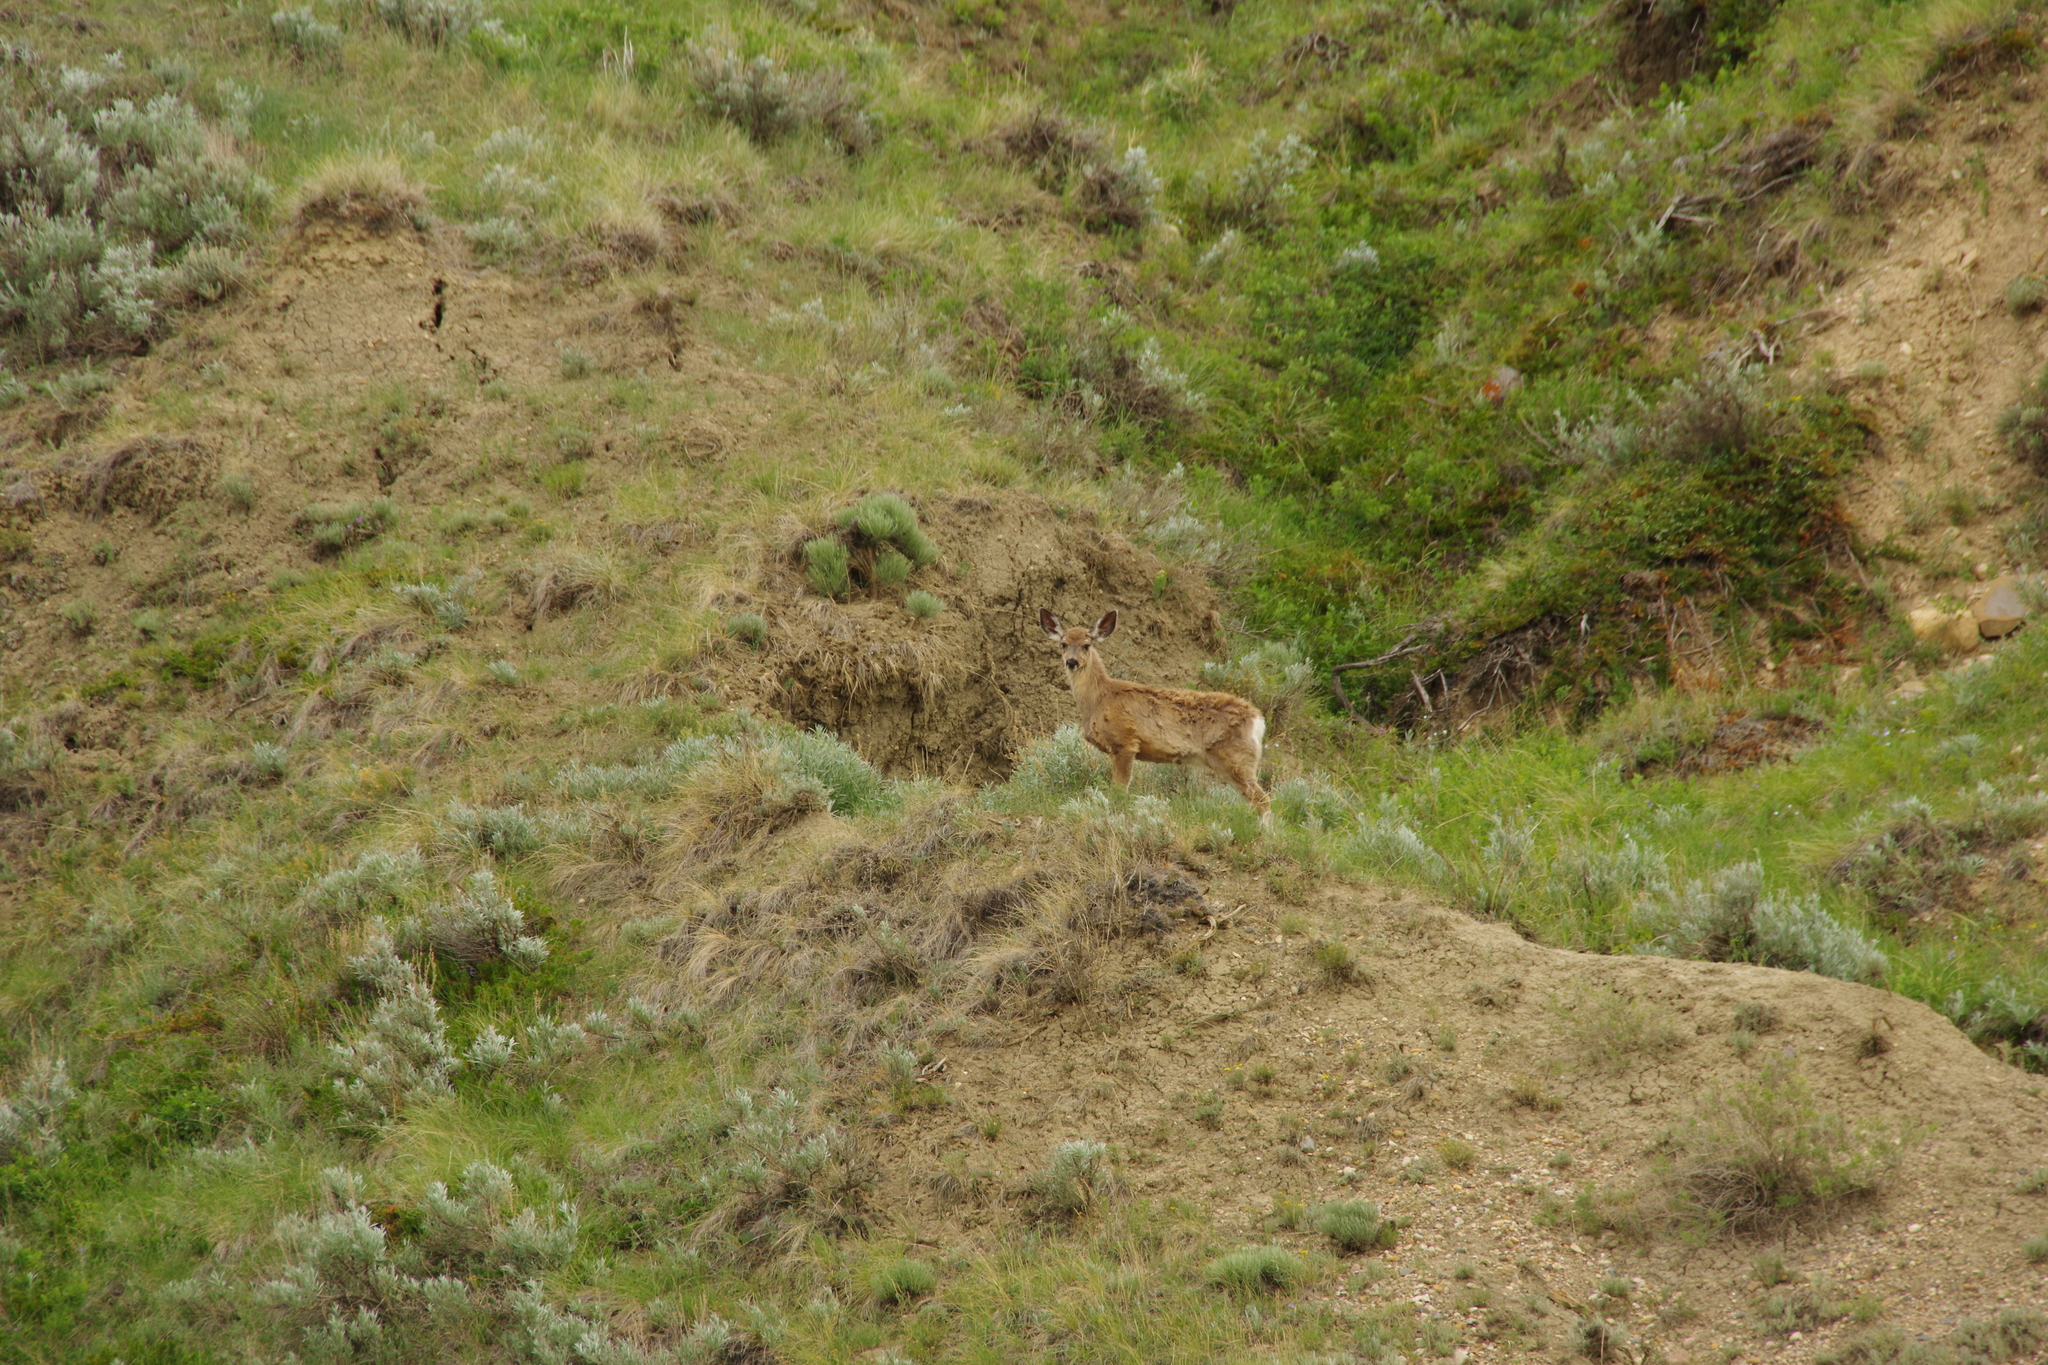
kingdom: Animalia
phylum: Chordata
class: Mammalia
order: Artiodactyla
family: Cervidae
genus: Odocoileus
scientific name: Odocoileus virginianus
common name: White-tailed deer
